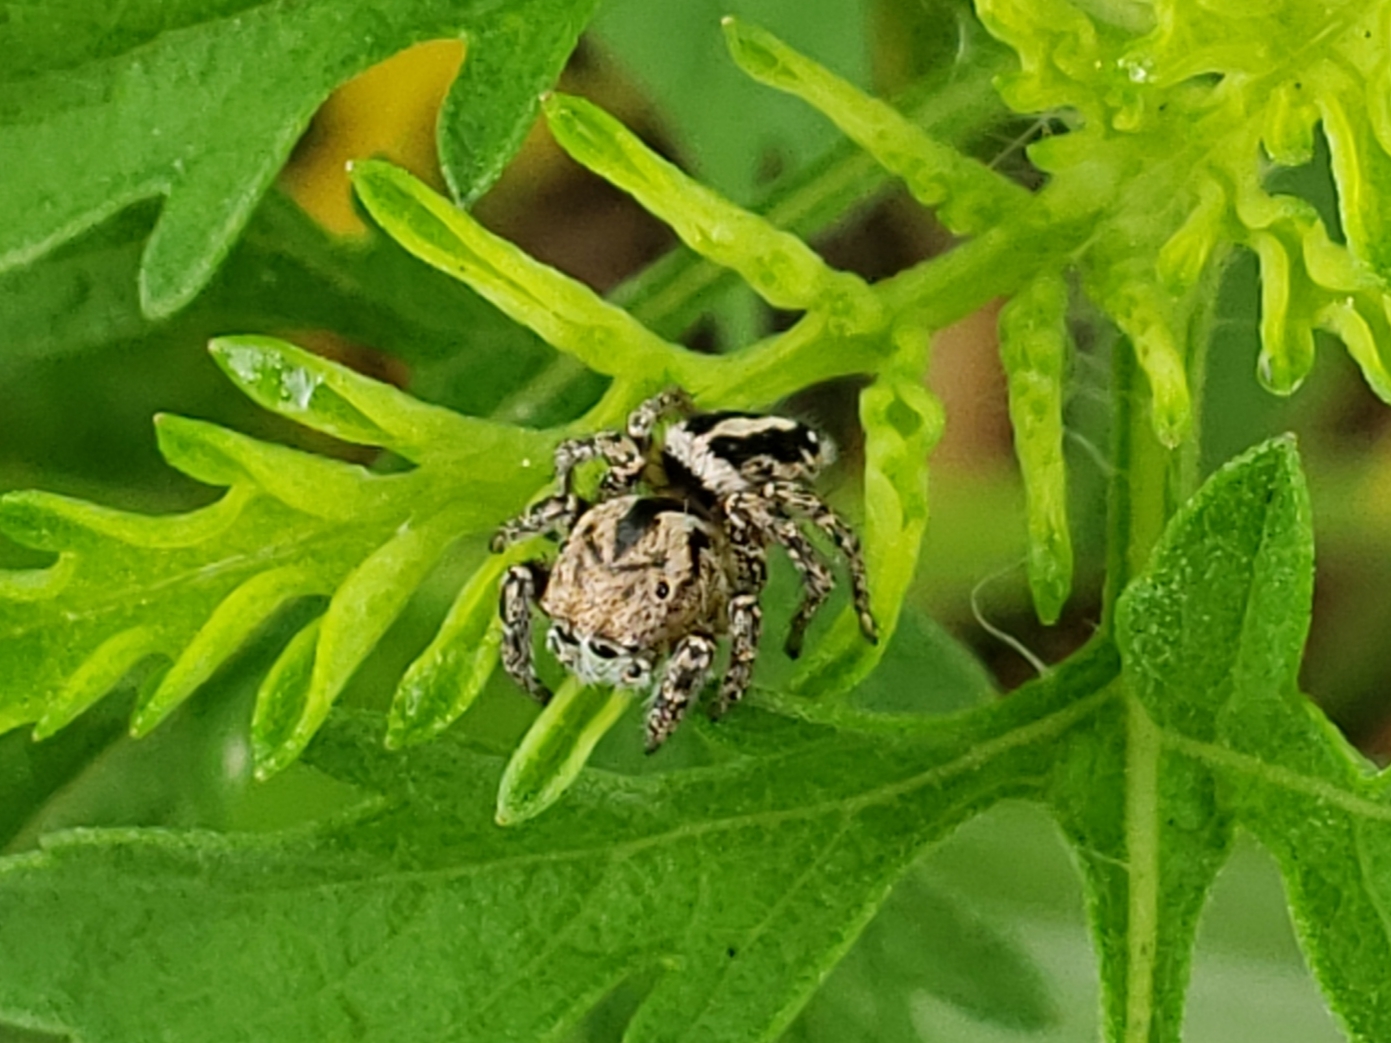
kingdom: Animalia
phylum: Arthropoda
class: Arachnida
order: Araneae
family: Salticidae
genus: Habronattus
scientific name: Habronattus trimaculatus
